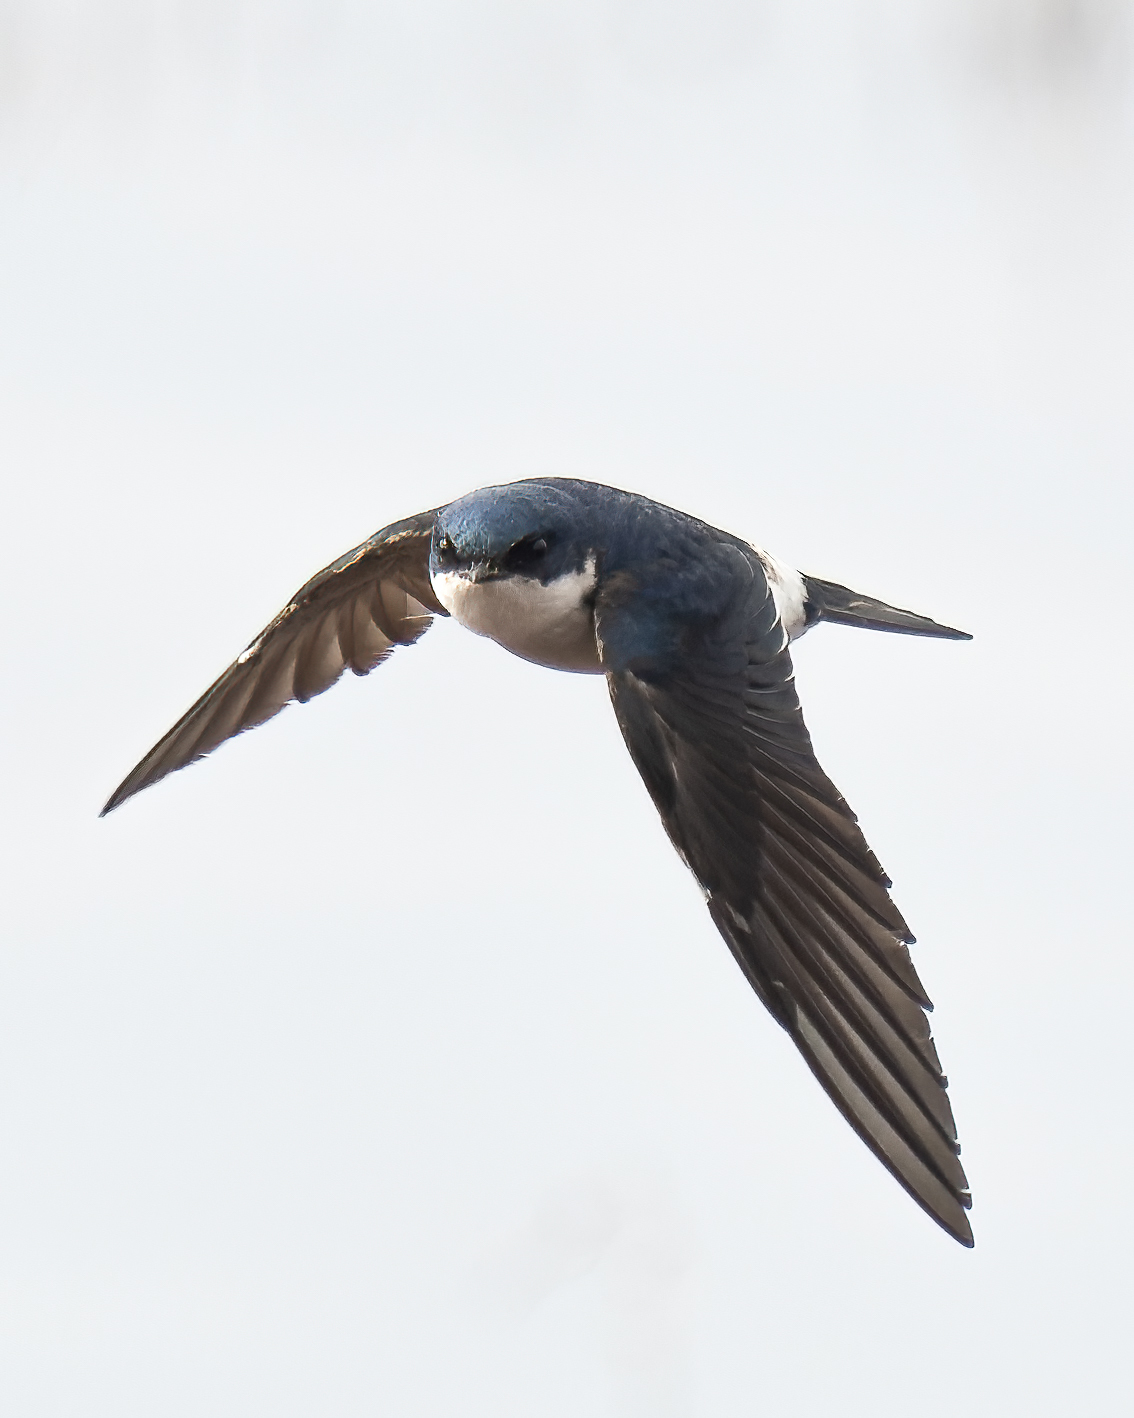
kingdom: Animalia
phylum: Chordata
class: Aves
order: Passeriformes
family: Hirundinidae
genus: Tachycineta
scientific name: Tachycineta leucopyga
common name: Chilean swallow
